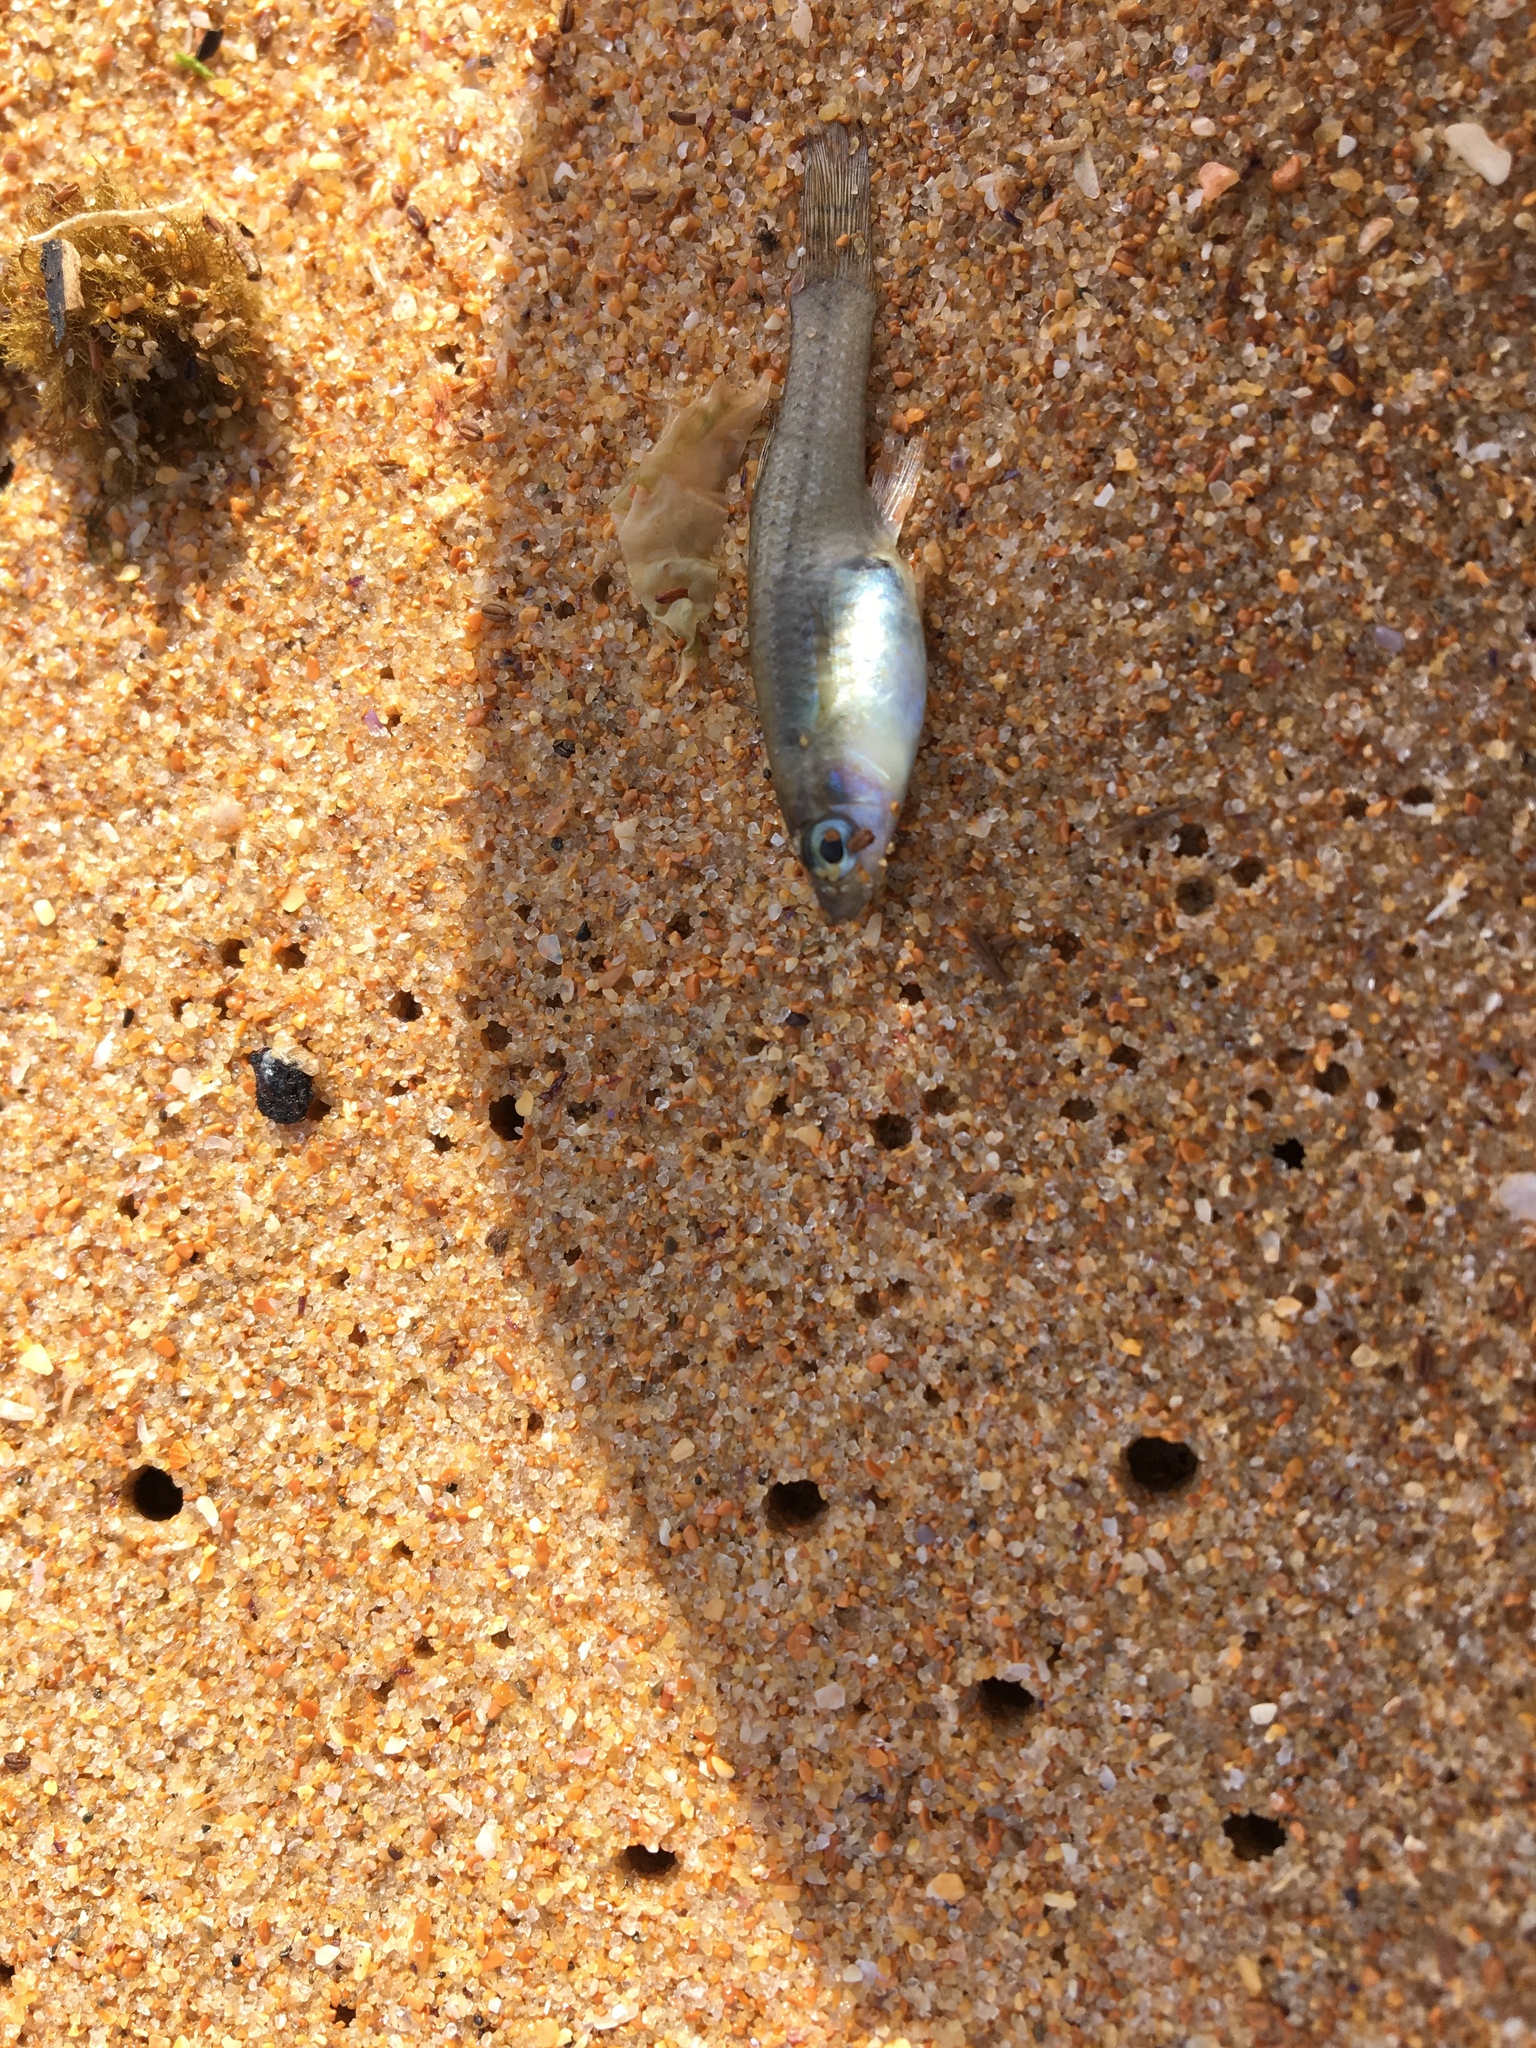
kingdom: Animalia
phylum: Chordata
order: Cyprinodontiformes
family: Poeciliidae
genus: Gambusia
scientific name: Gambusia holbrooki
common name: Eastern mosquitofish
